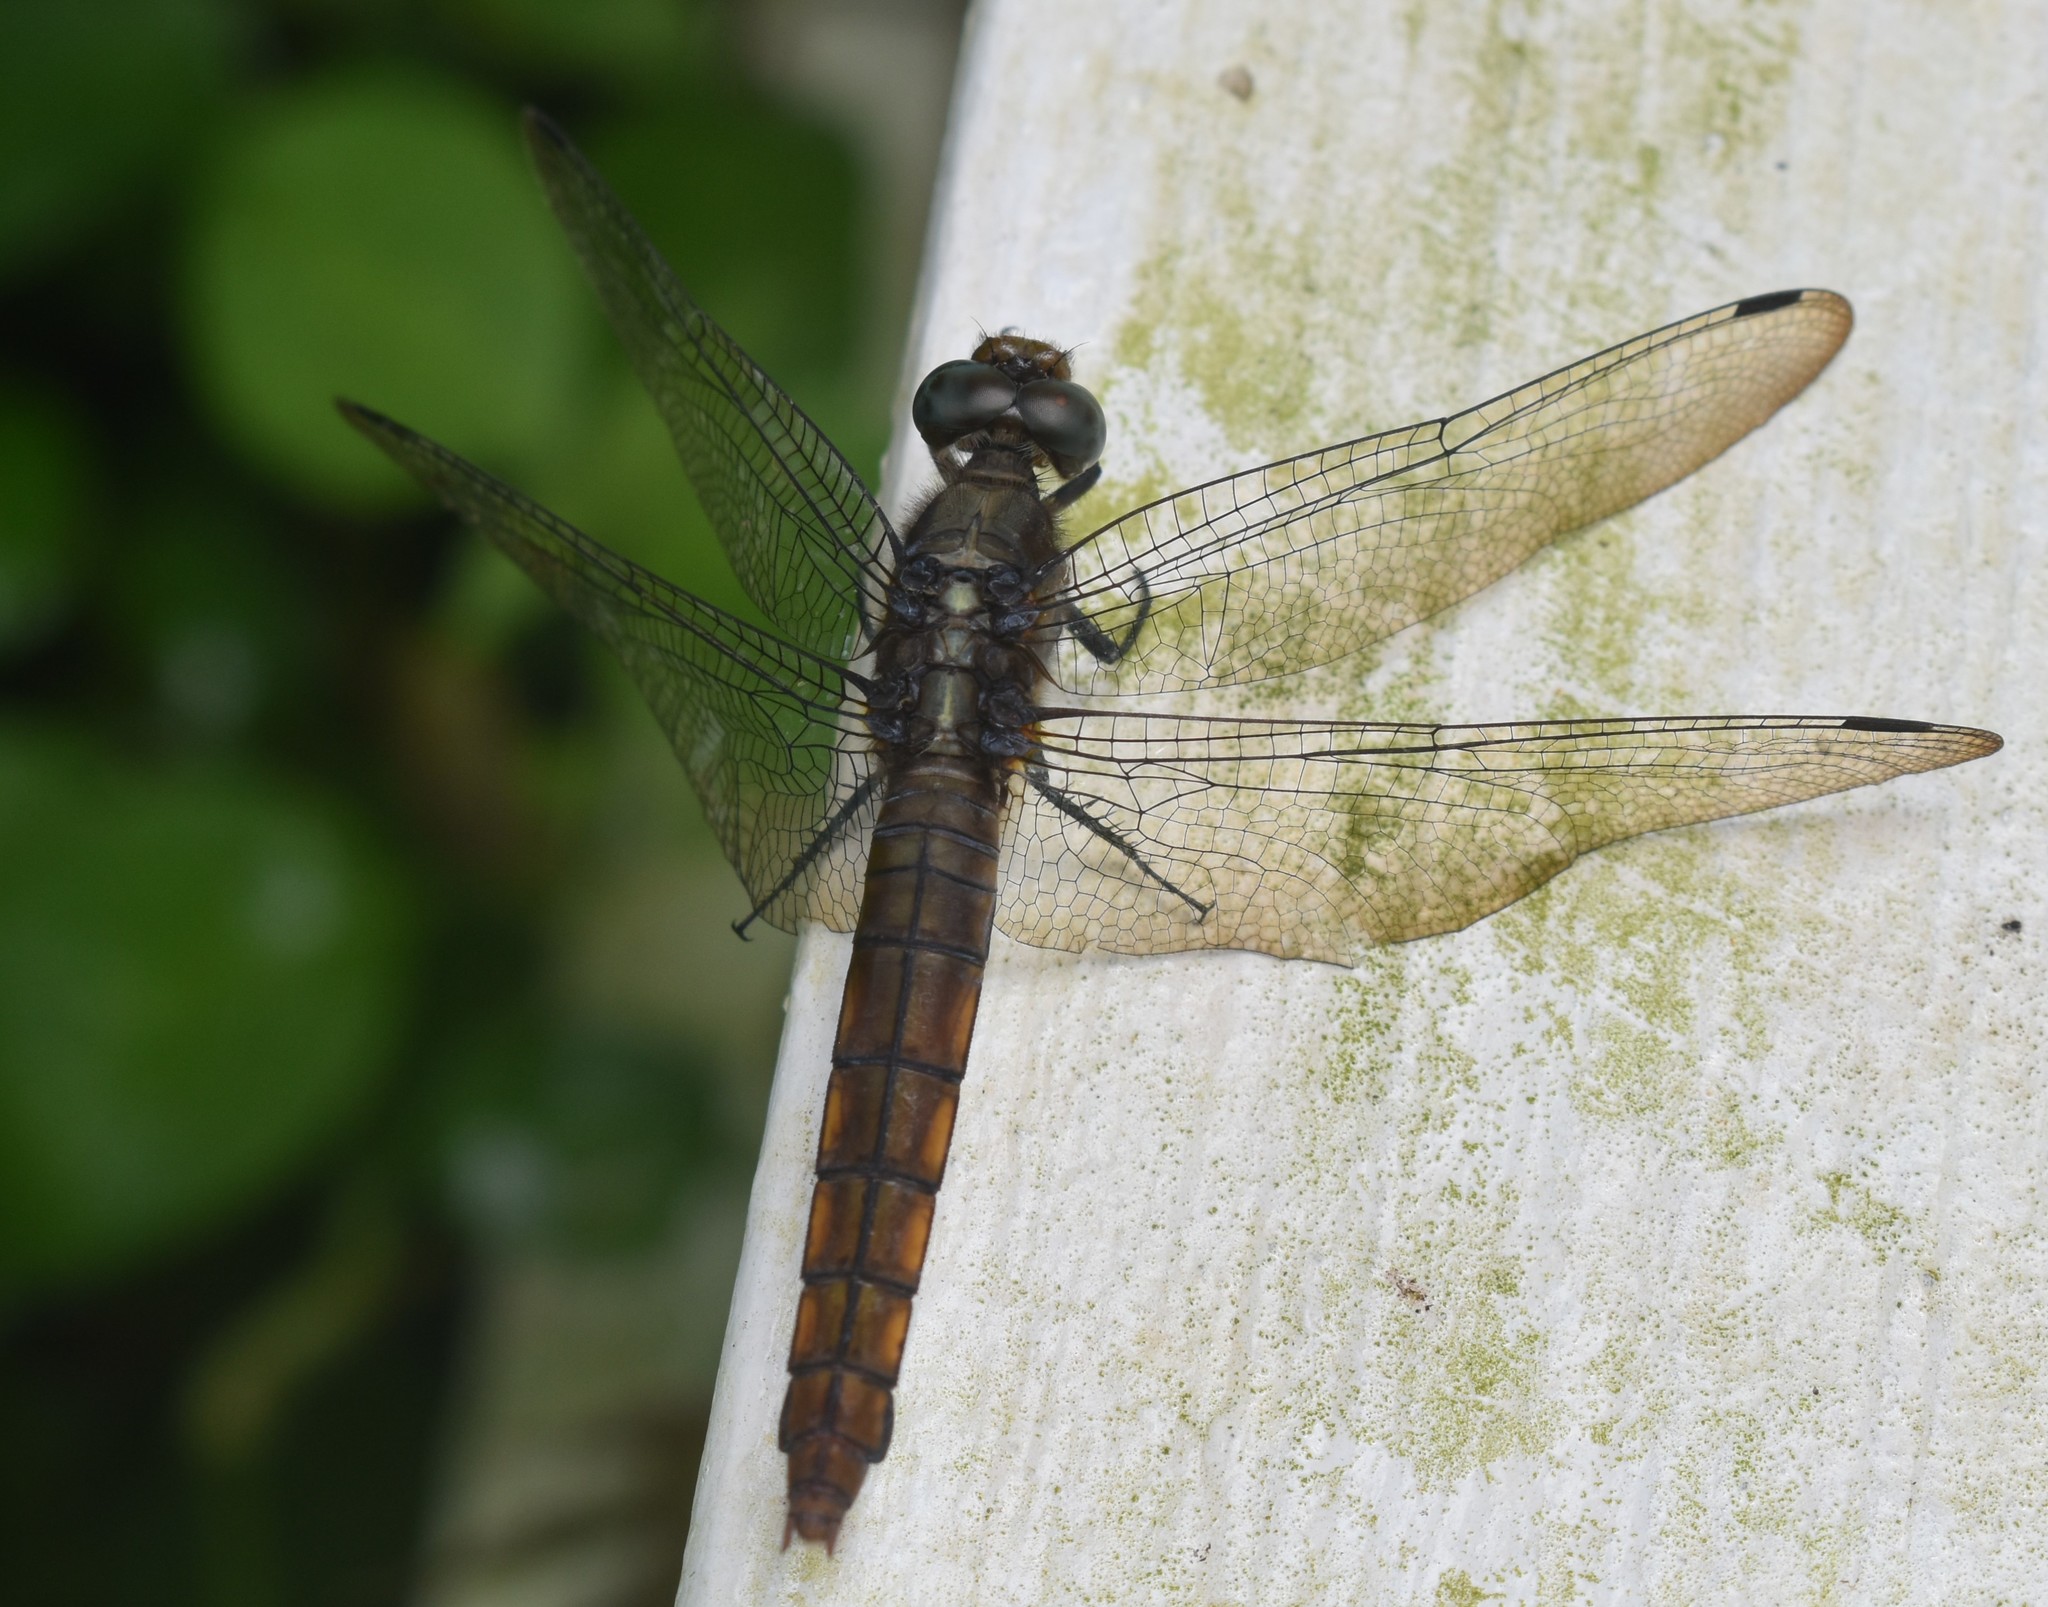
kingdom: Animalia
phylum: Arthropoda
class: Insecta
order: Odonata
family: Libellulidae
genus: Orthetrum
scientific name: Orthetrum pruinosum
